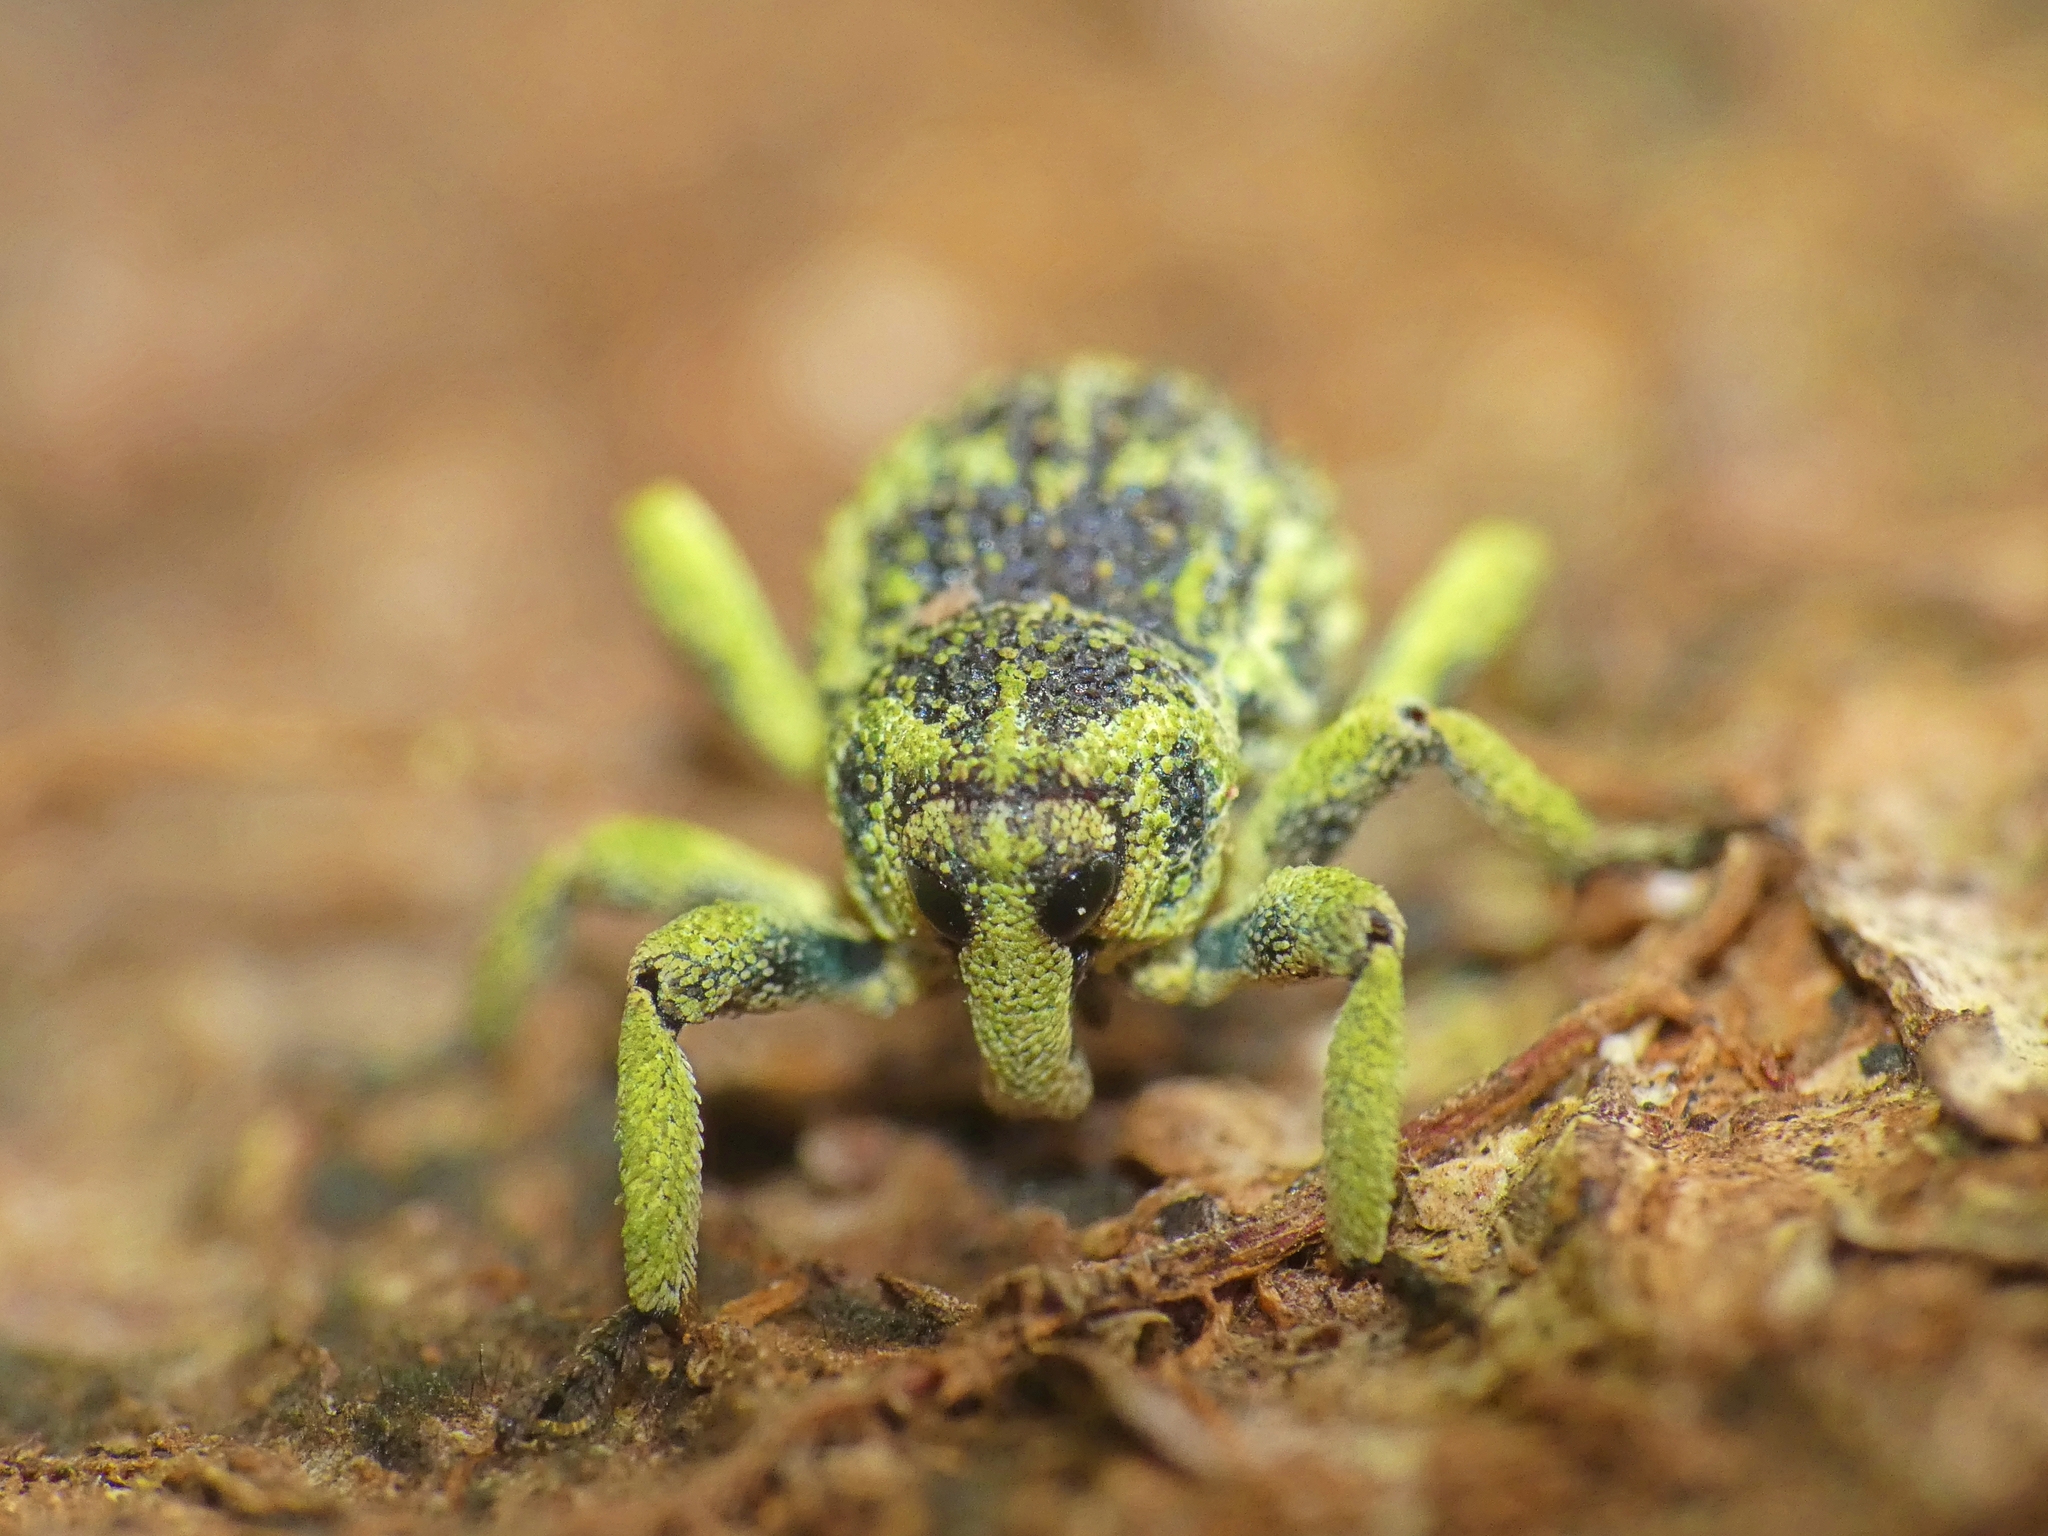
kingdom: Animalia
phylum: Arthropoda
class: Insecta
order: Coleoptera
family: Curculionidae
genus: Pteroporopterus
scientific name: Pteroporopterus lacunosus
